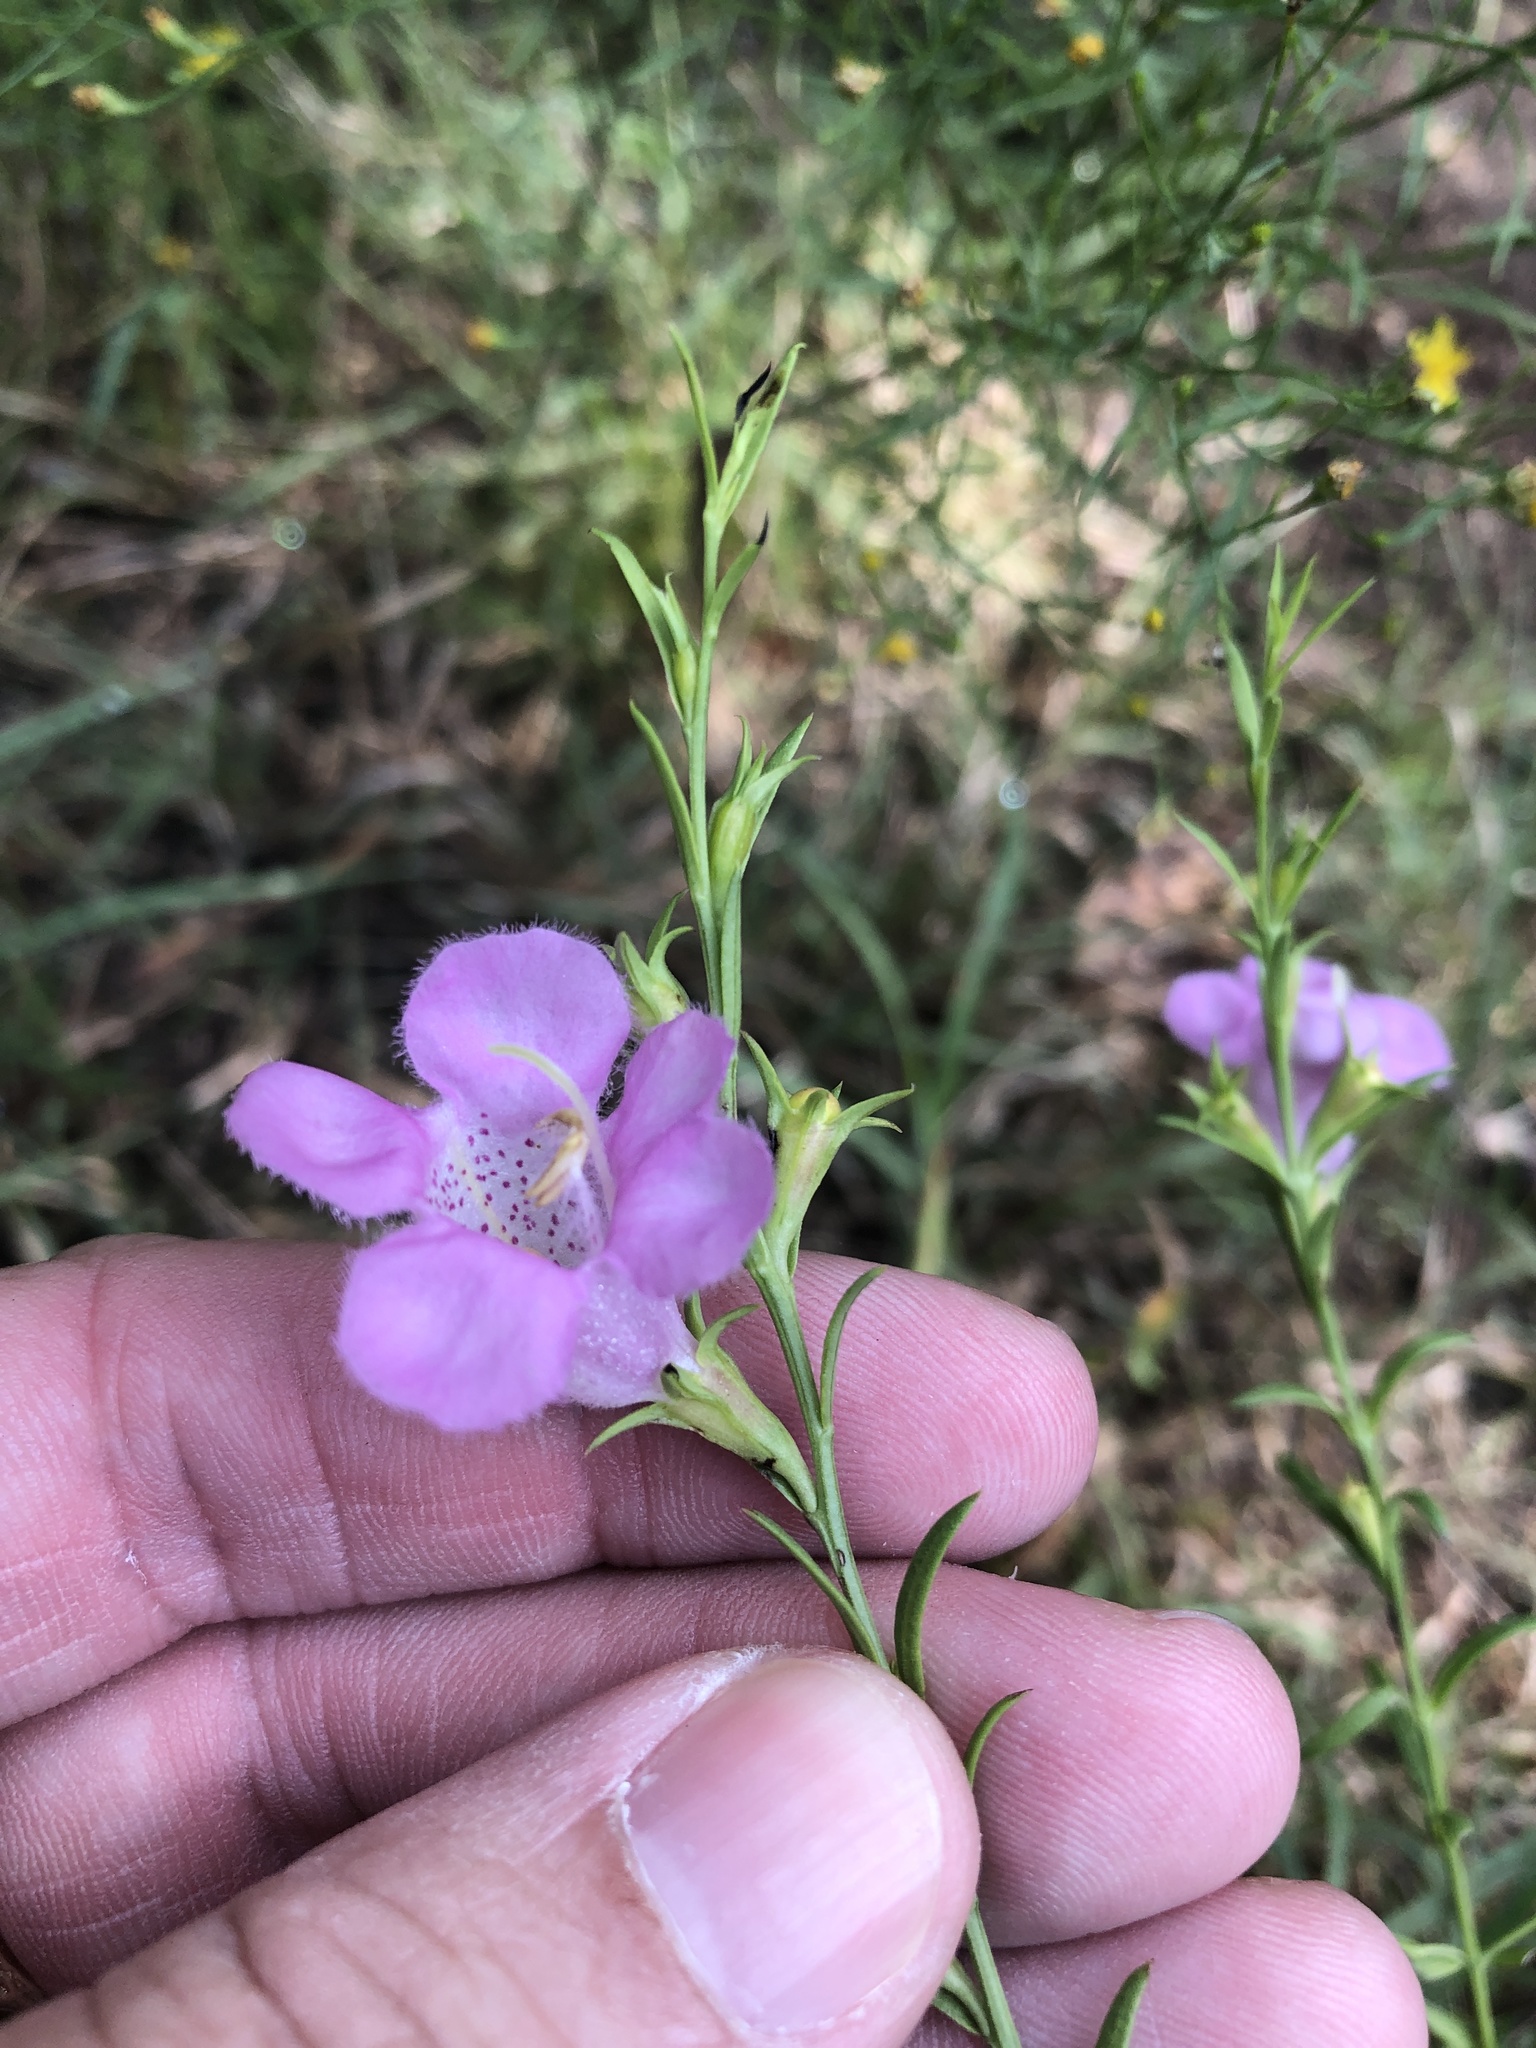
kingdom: Plantae
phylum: Tracheophyta
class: Magnoliopsida
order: Lamiales
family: Orobanchaceae
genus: Agalinis
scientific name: Agalinis heterophylla
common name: Prairie agalinis
